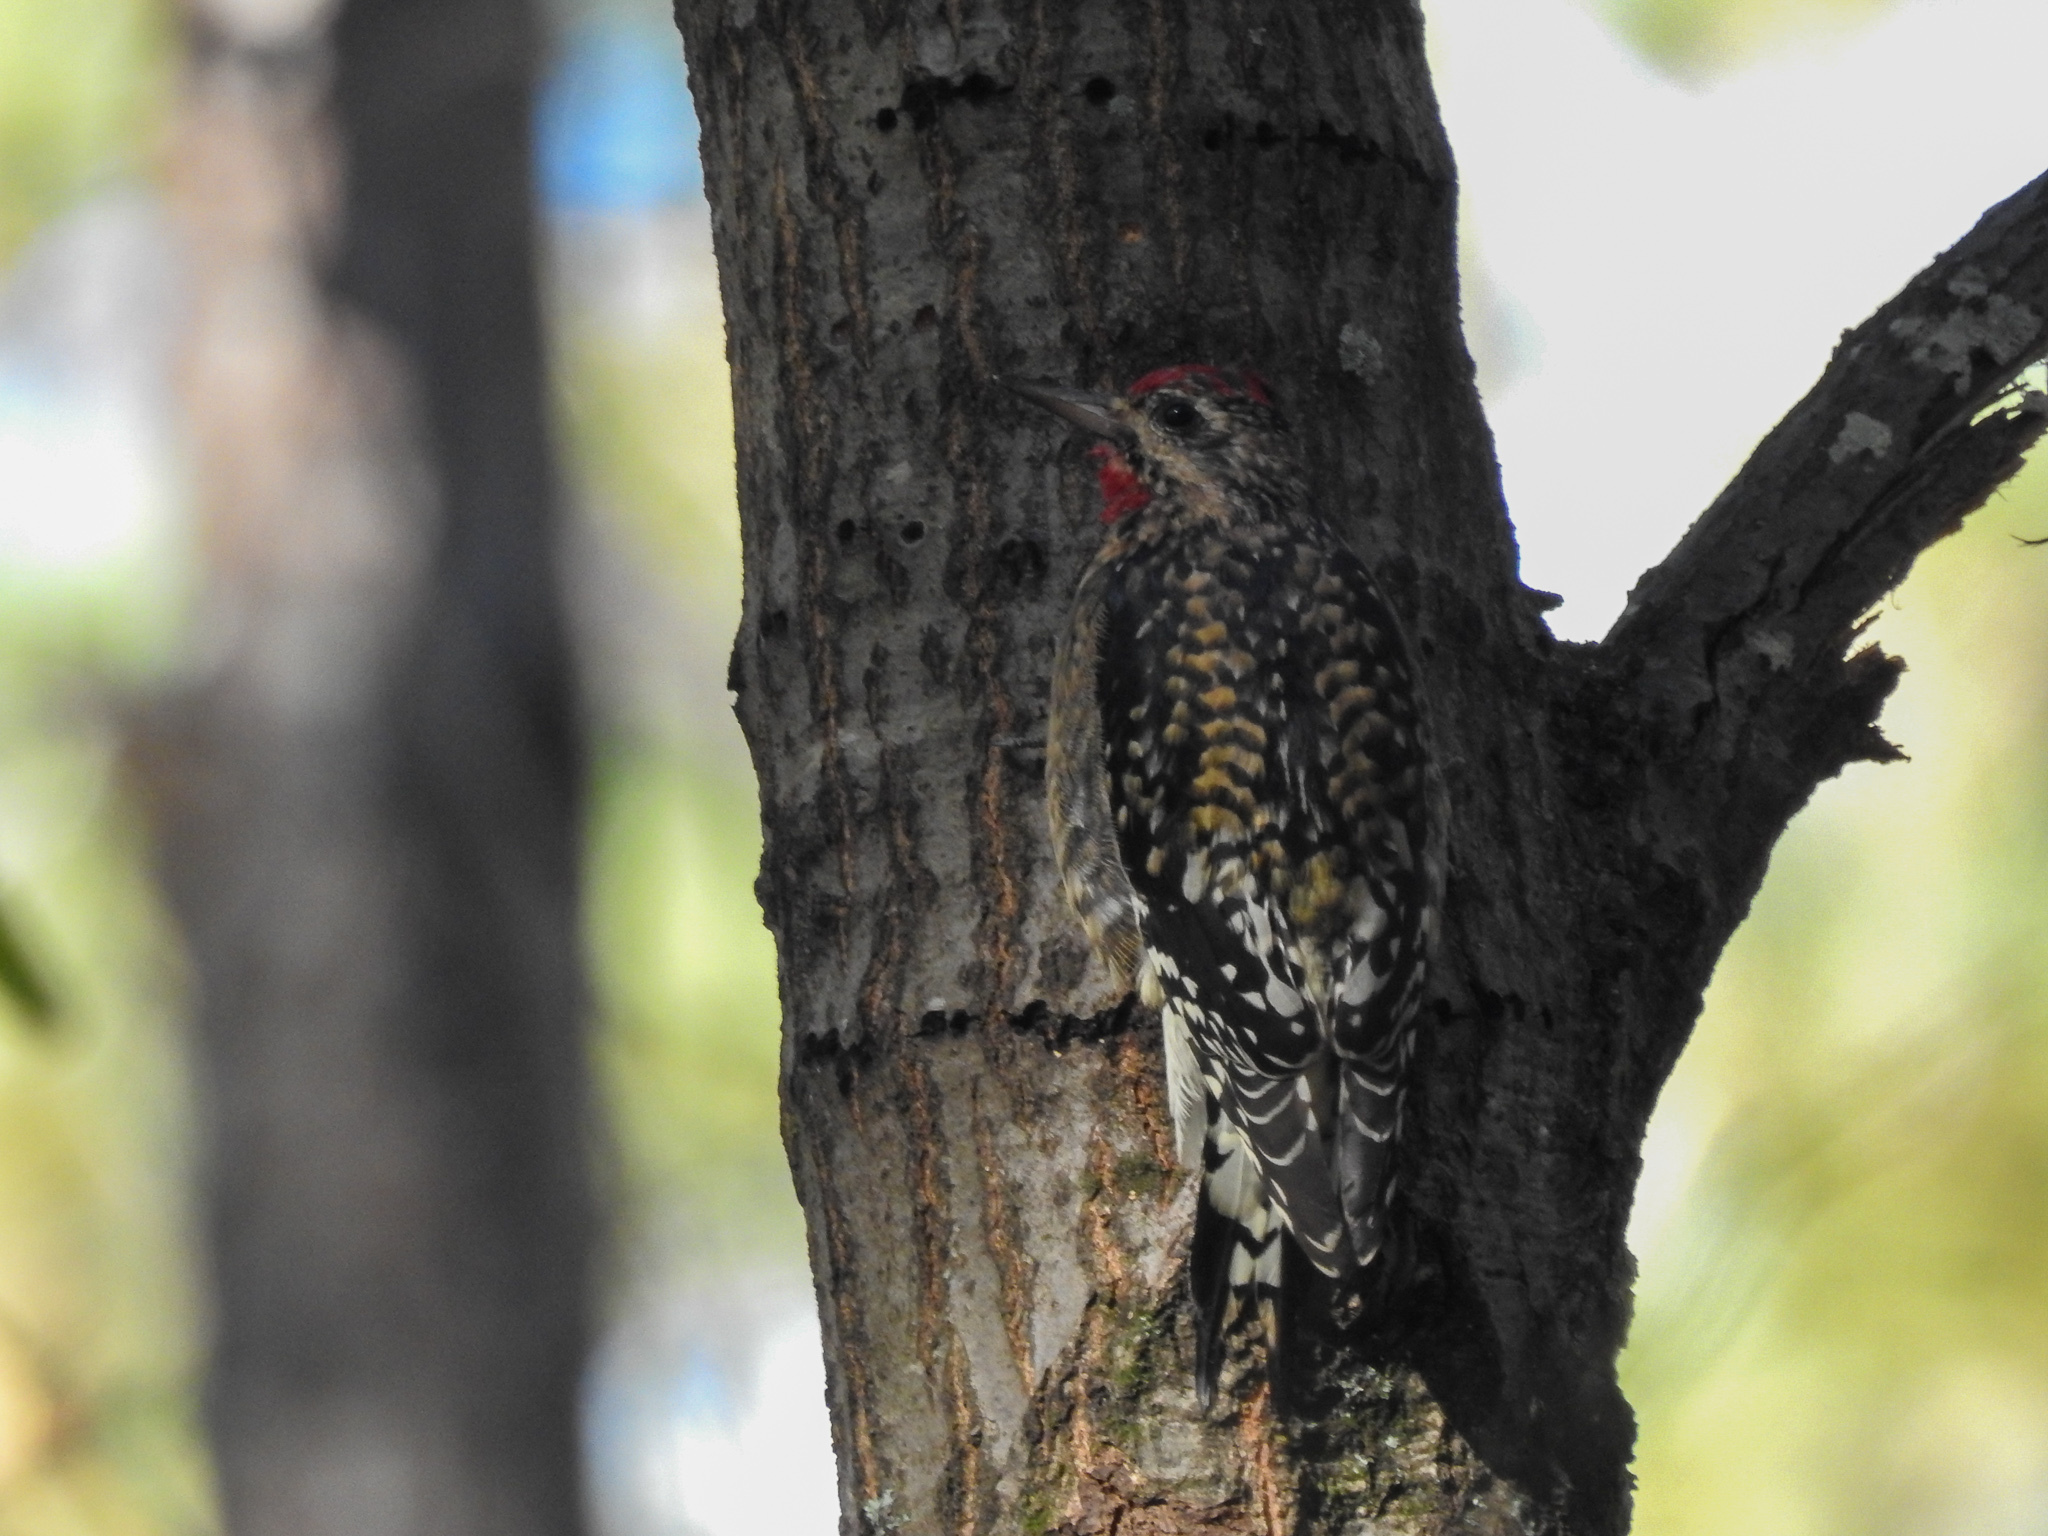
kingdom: Animalia
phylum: Chordata
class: Aves
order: Piciformes
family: Picidae
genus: Sphyrapicus
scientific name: Sphyrapicus varius
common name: Yellow-bellied sapsucker
